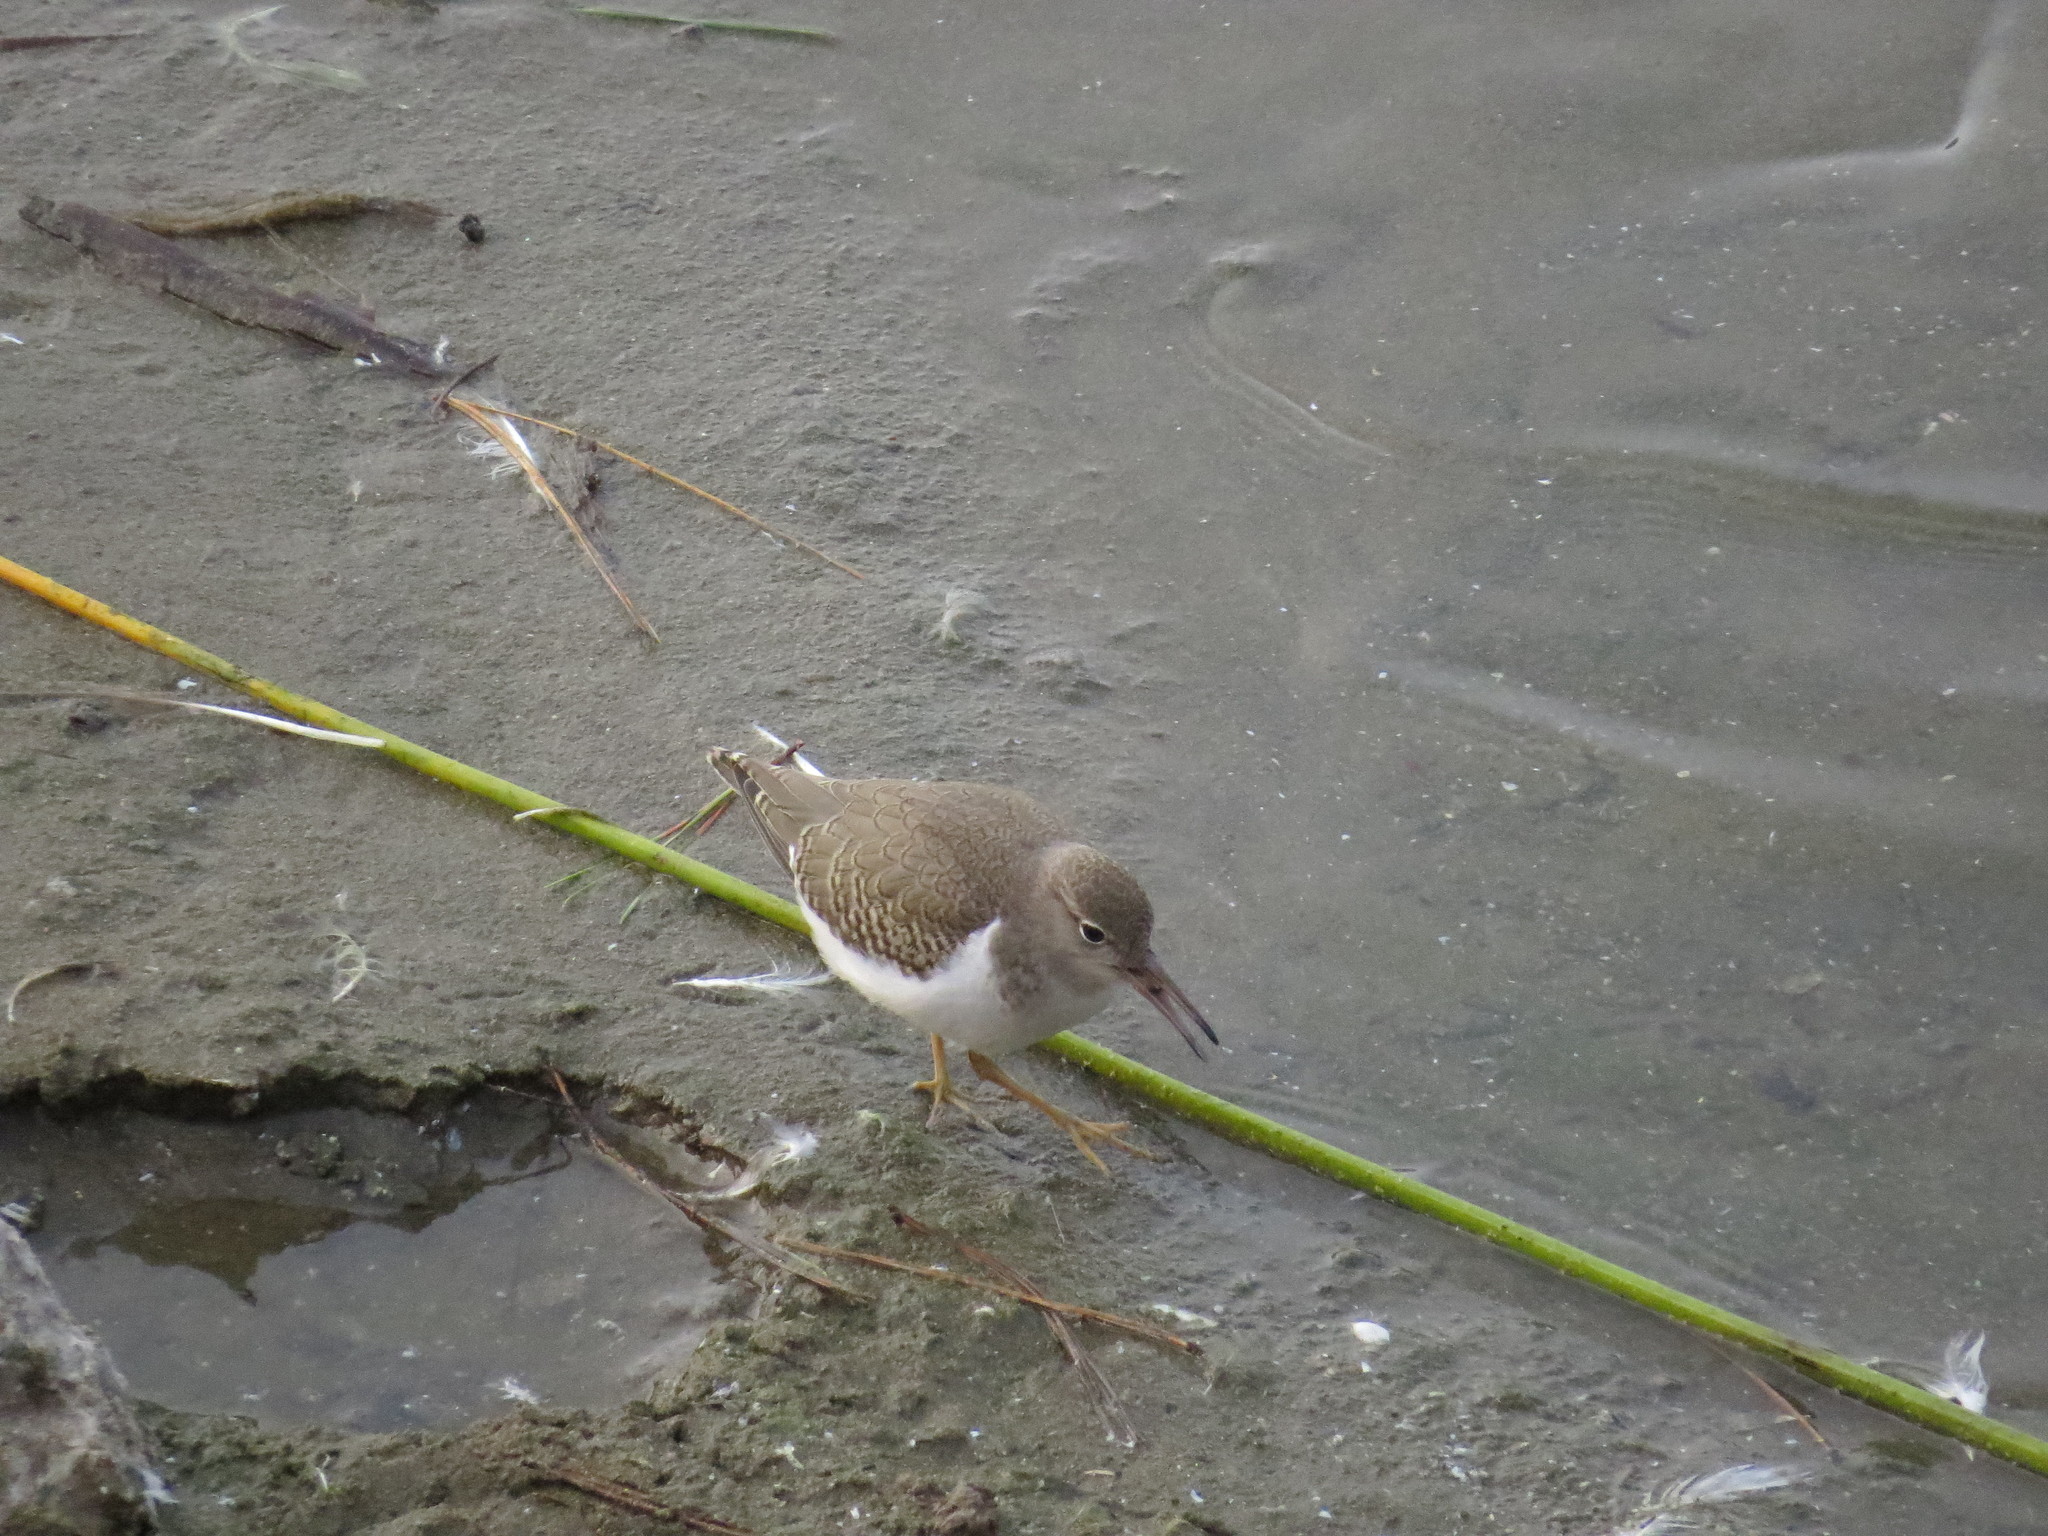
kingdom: Animalia
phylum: Chordata
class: Aves
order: Charadriiformes
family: Scolopacidae
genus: Actitis
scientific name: Actitis macularius
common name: Spotted sandpiper
